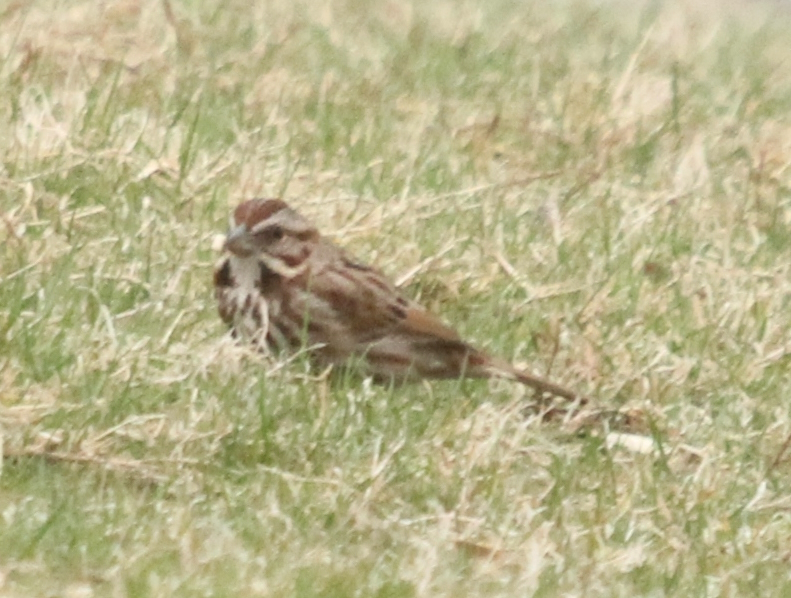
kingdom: Animalia
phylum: Chordata
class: Aves
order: Passeriformes
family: Passerellidae
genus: Melospiza
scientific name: Melospiza melodia
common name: Song sparrow
